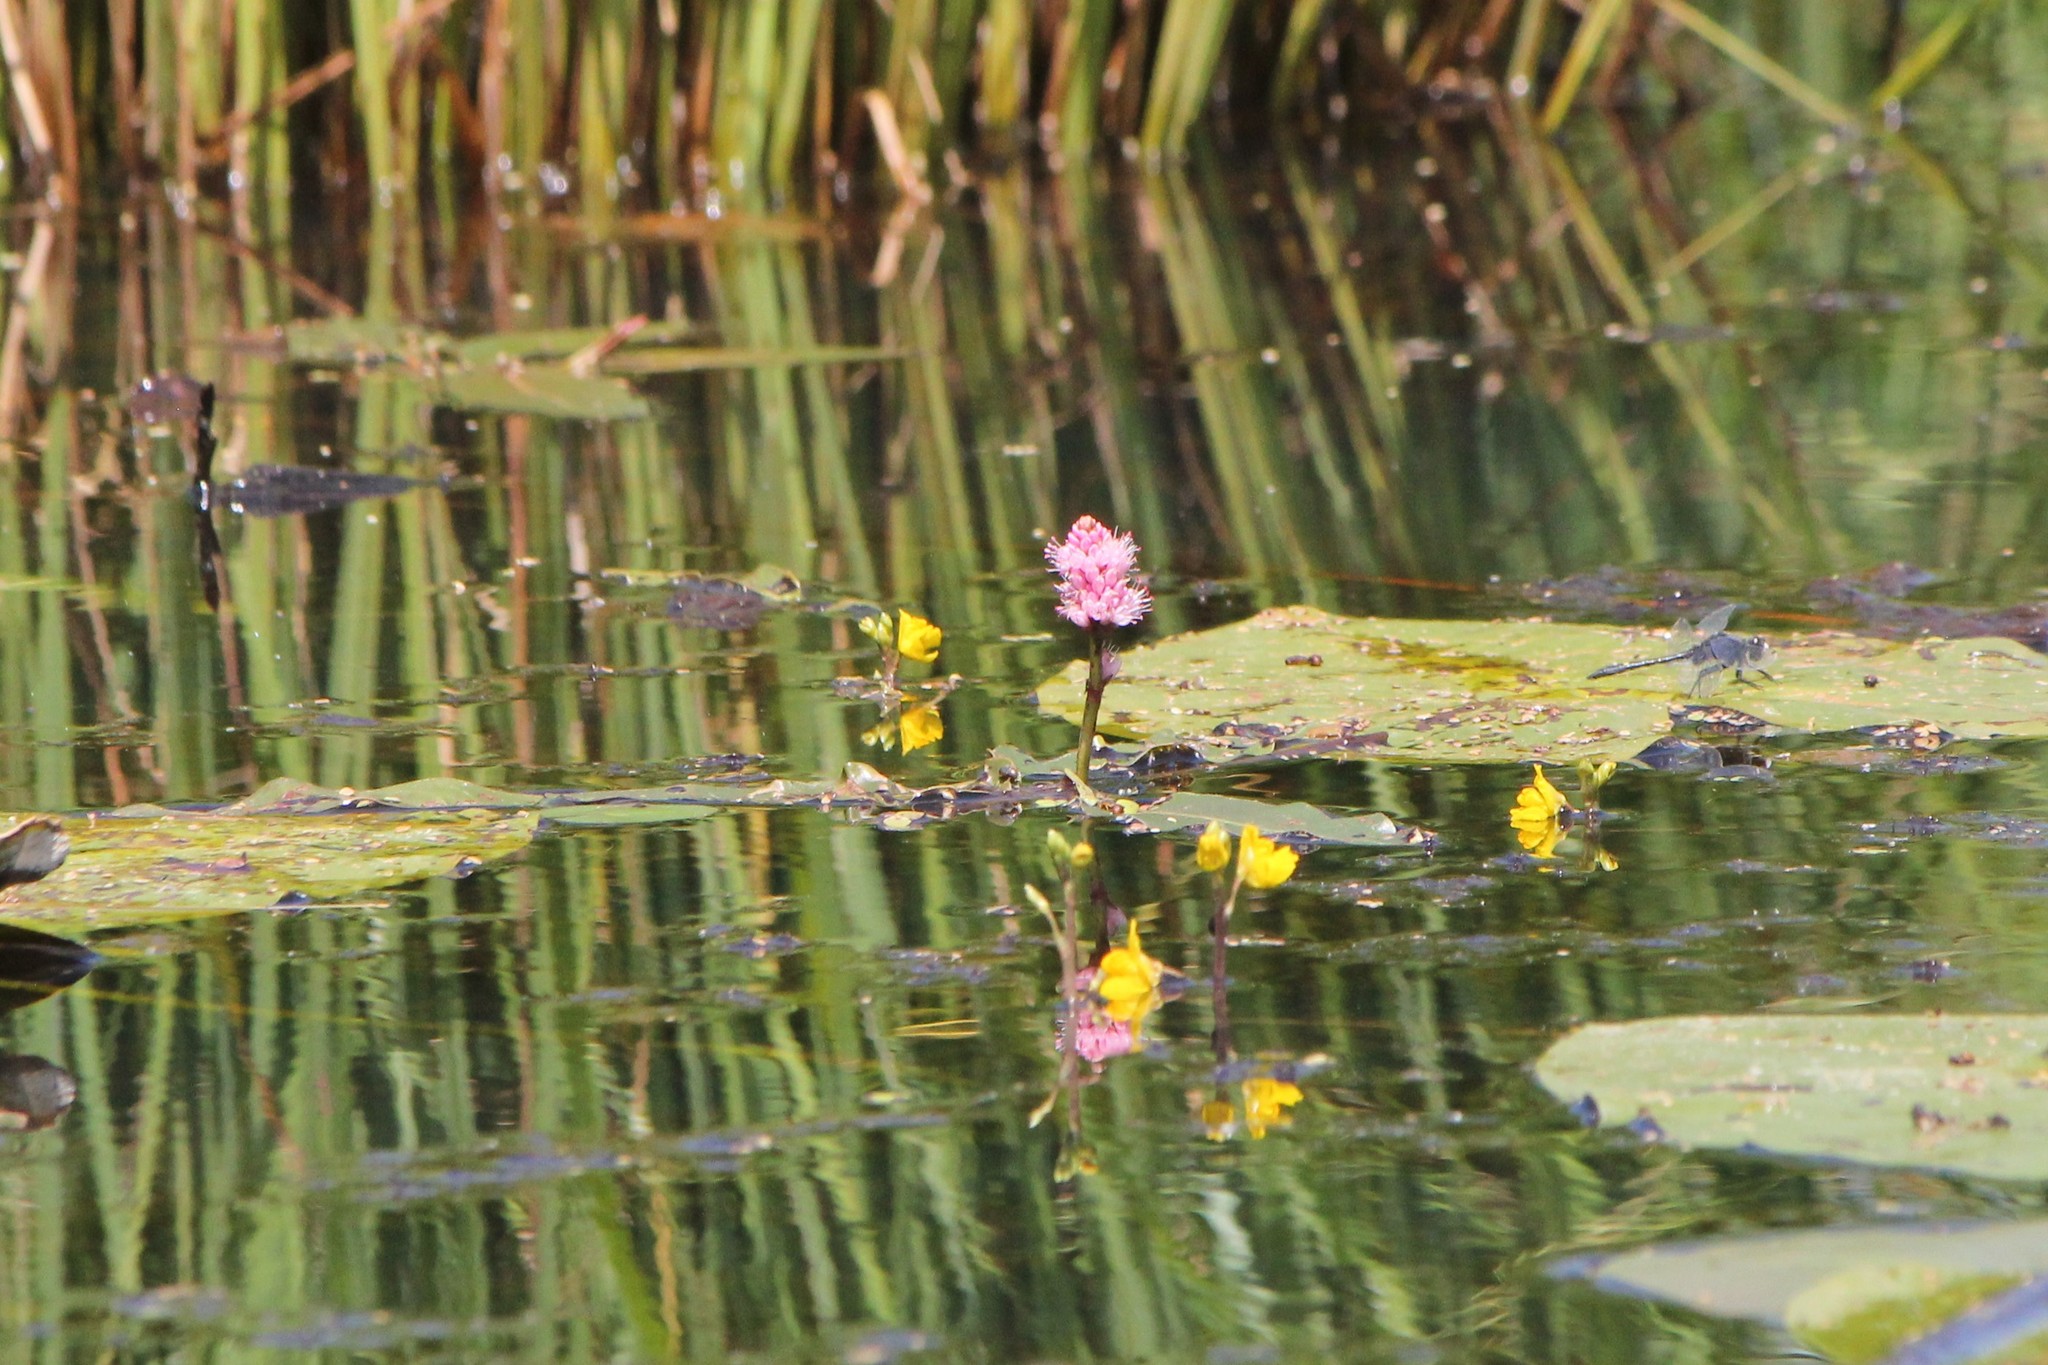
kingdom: Plantae
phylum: Tracheophyta
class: Magnoliopsida
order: Caryophyllales
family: Polygonaceae
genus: Persicaria
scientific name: Persicaria amphibia
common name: Amphibious bistort
